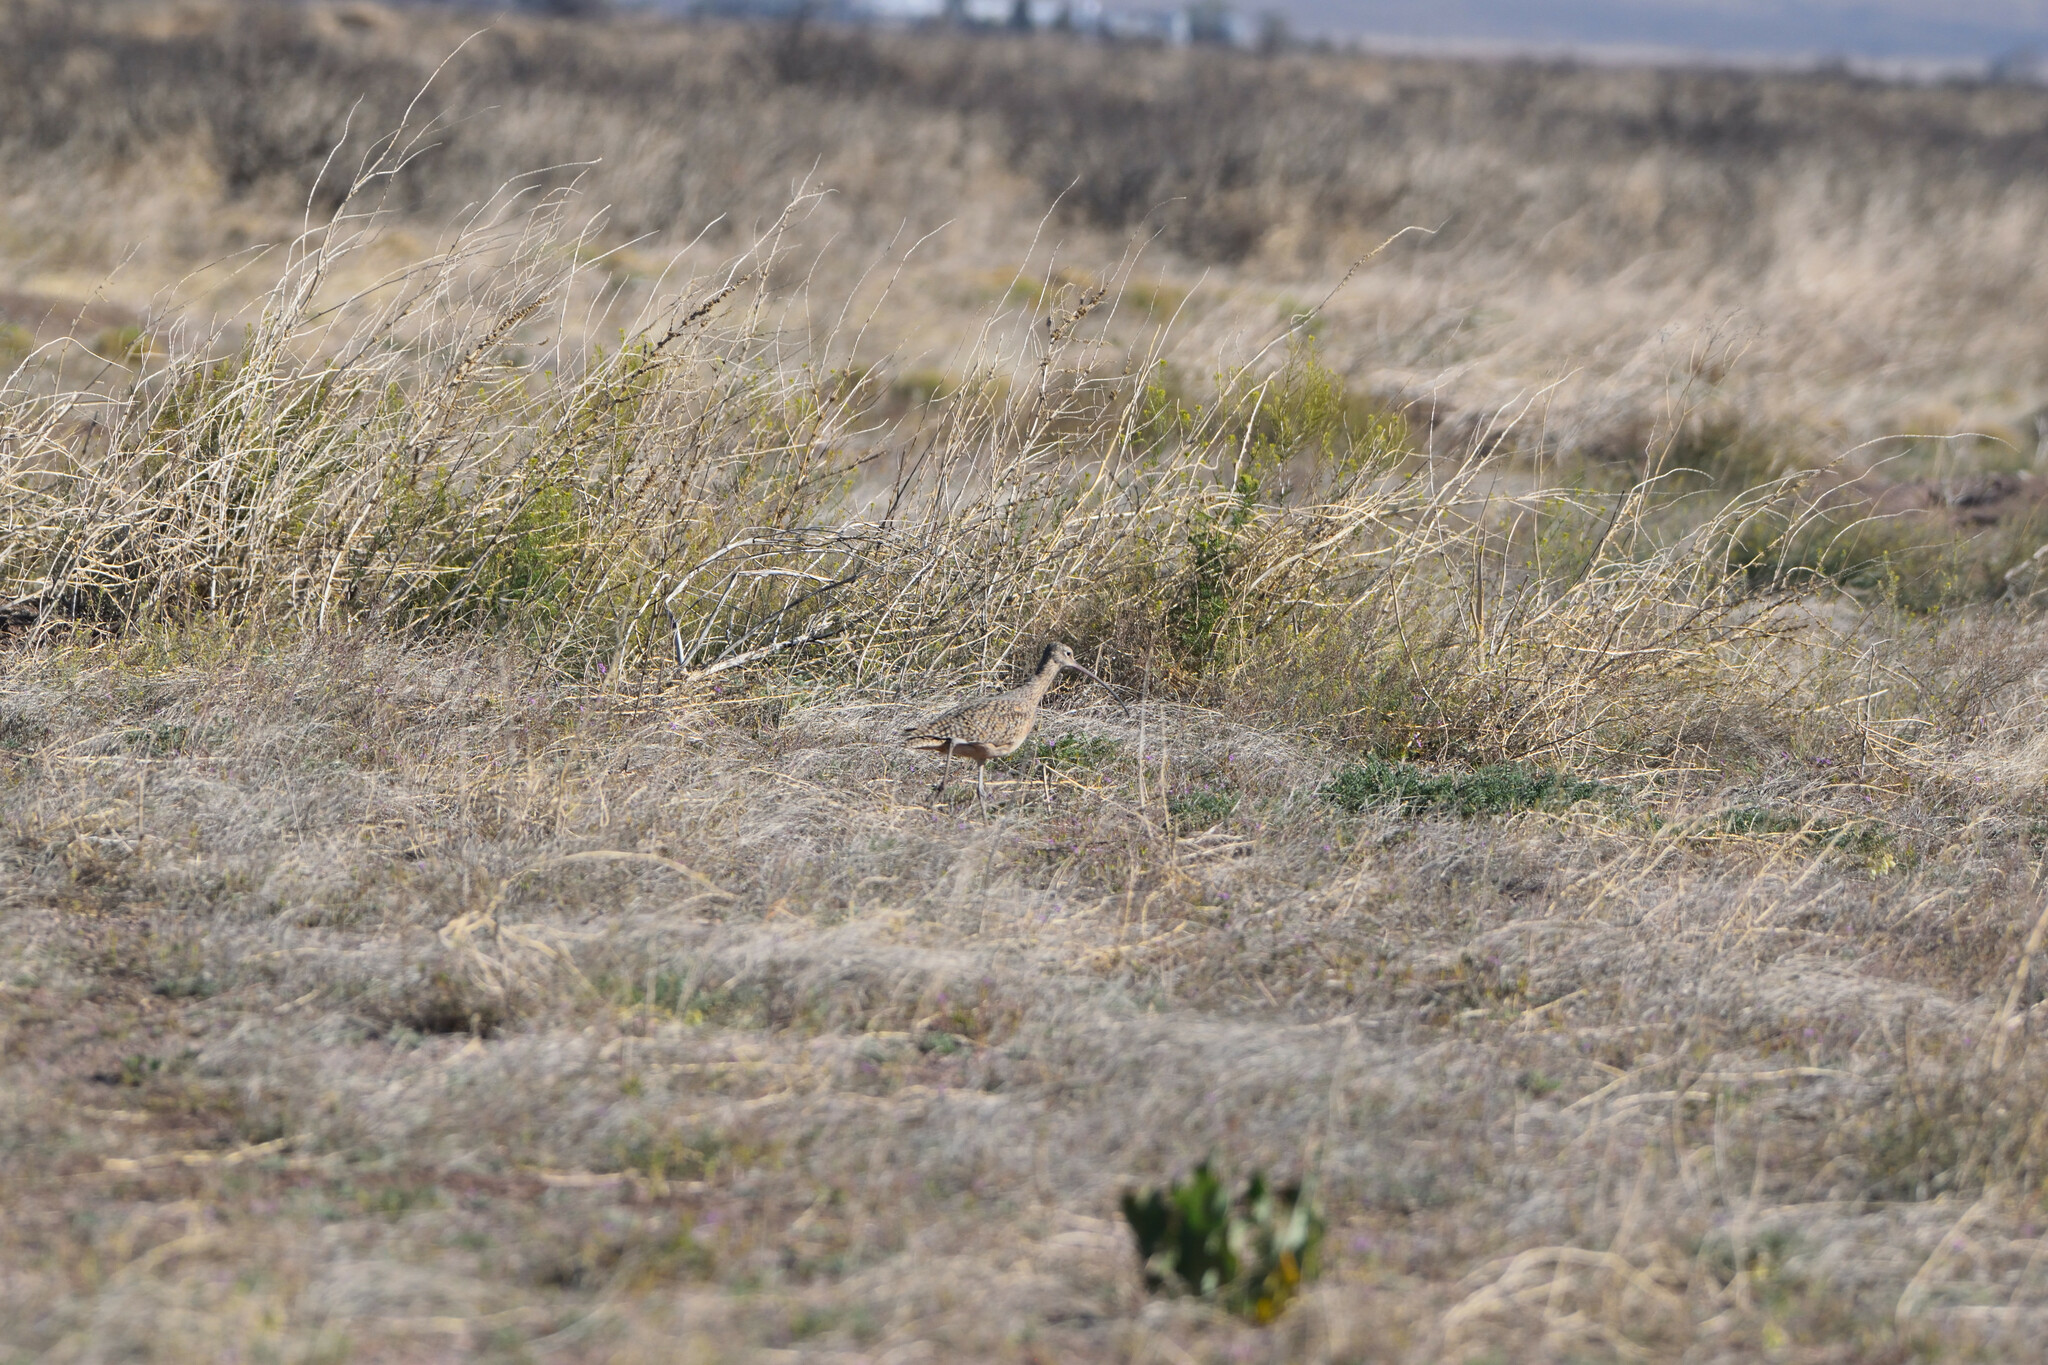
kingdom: Animalia
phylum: Chordata
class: Aves
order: Charadriiformes
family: Scolopacidae
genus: Numenius
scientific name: Numenius americanus
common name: Long-billed curlew
